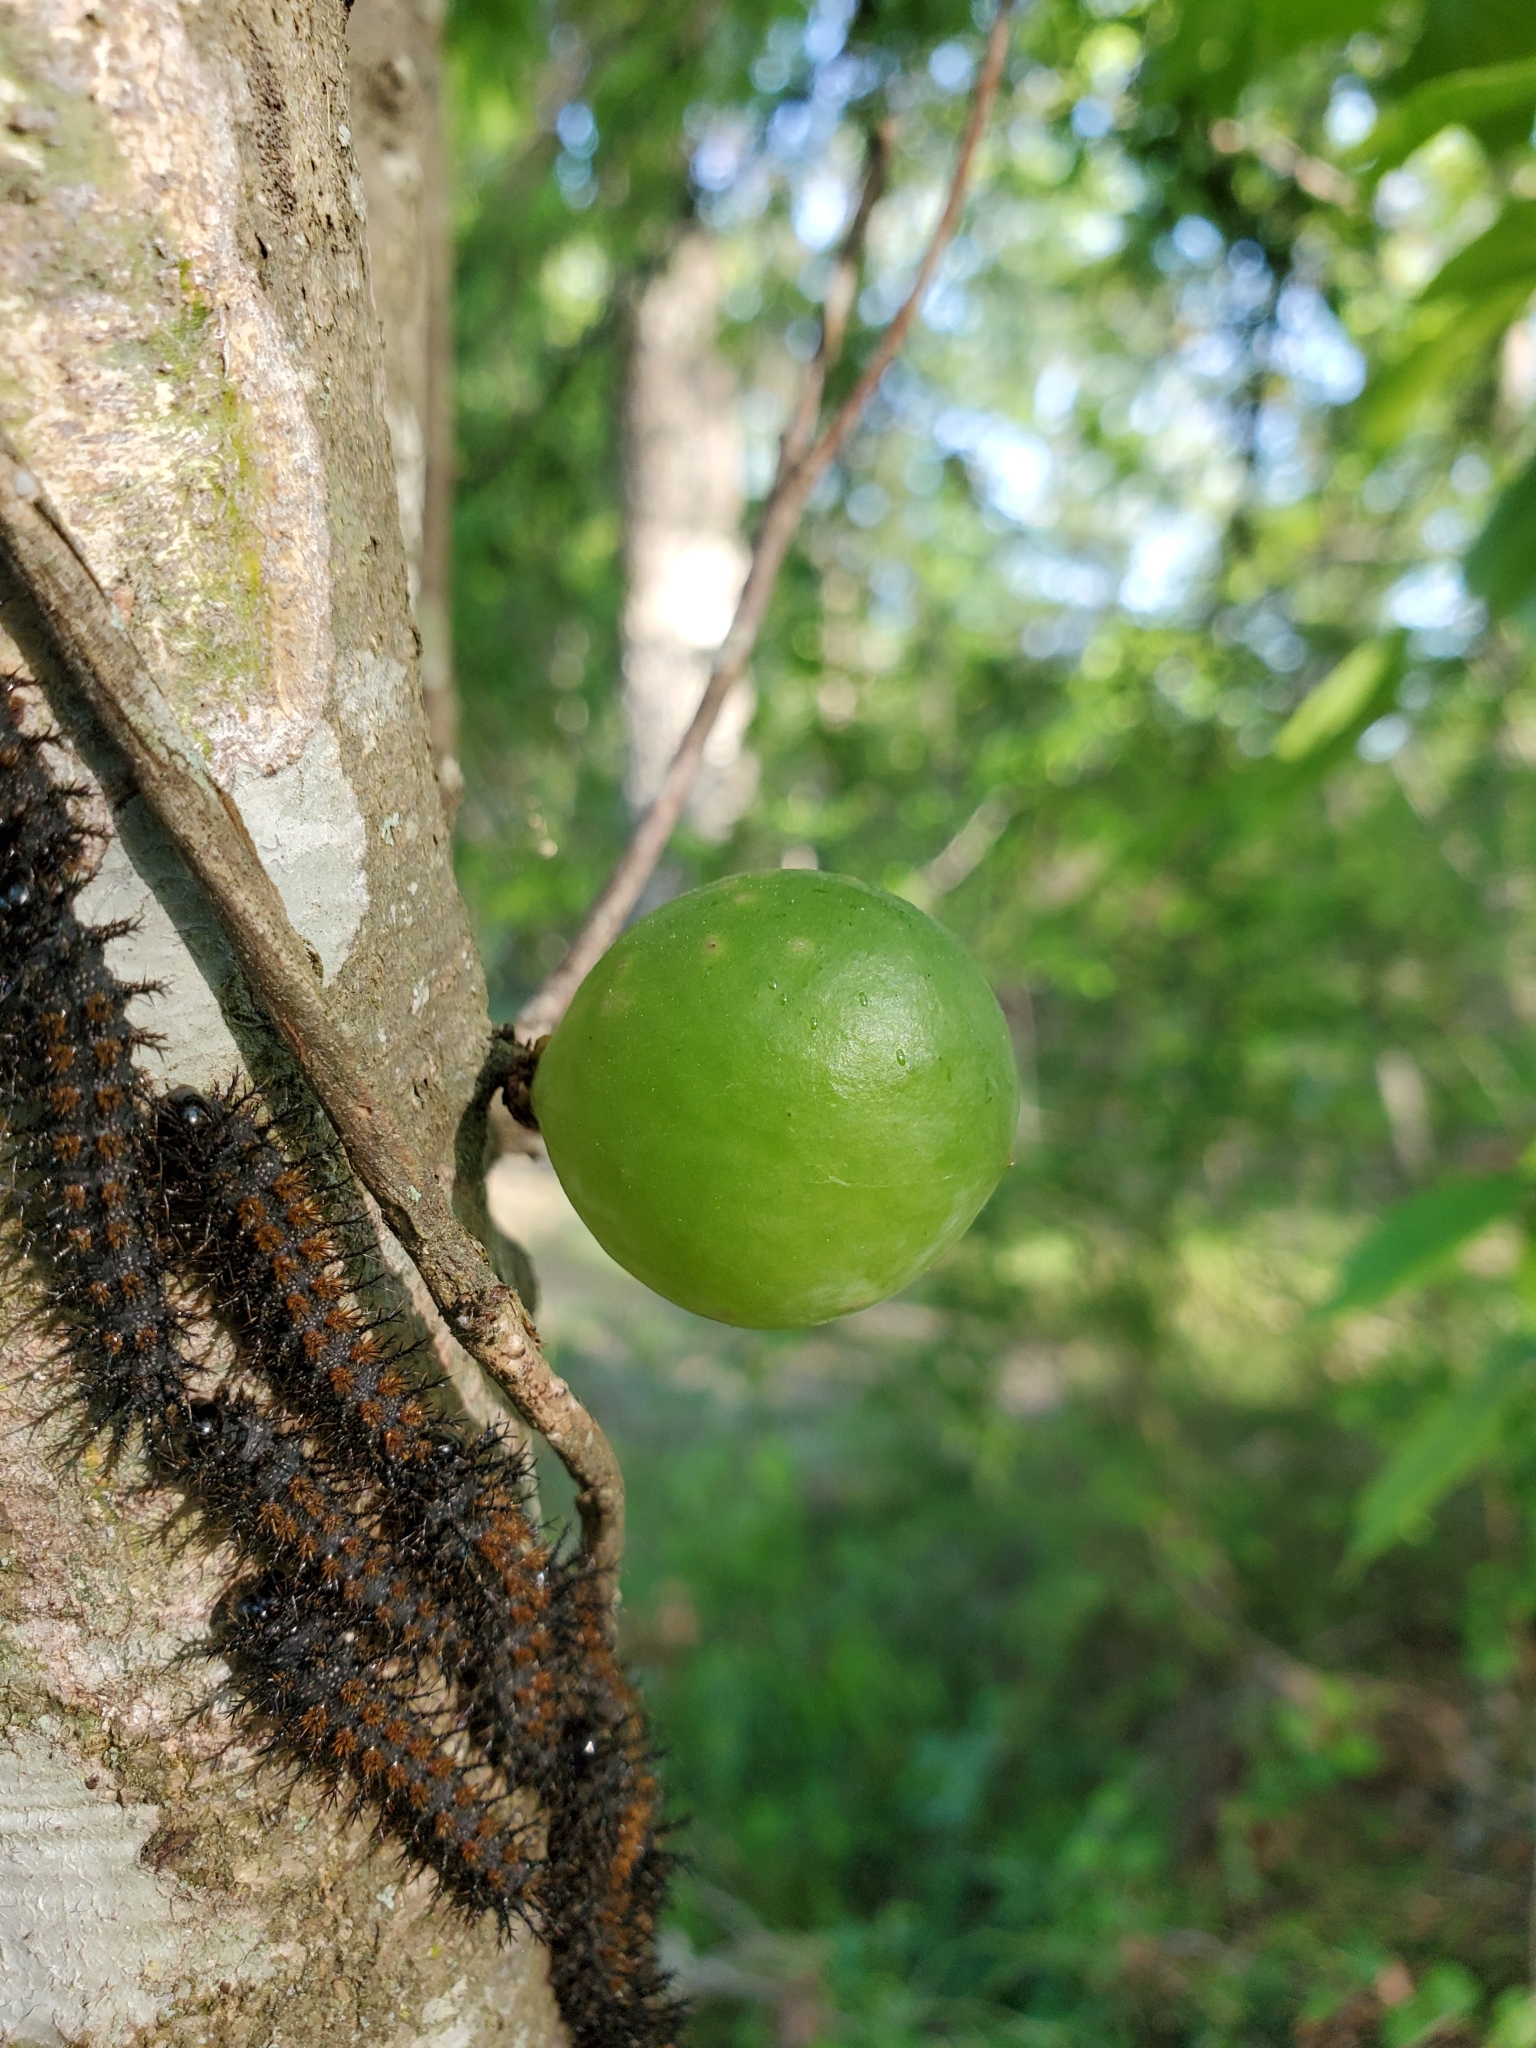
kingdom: Animalia
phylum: Arthropoda
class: Insecta
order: Hymenoptera
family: Cynipidae
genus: Amphibolips
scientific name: Amphibolips
